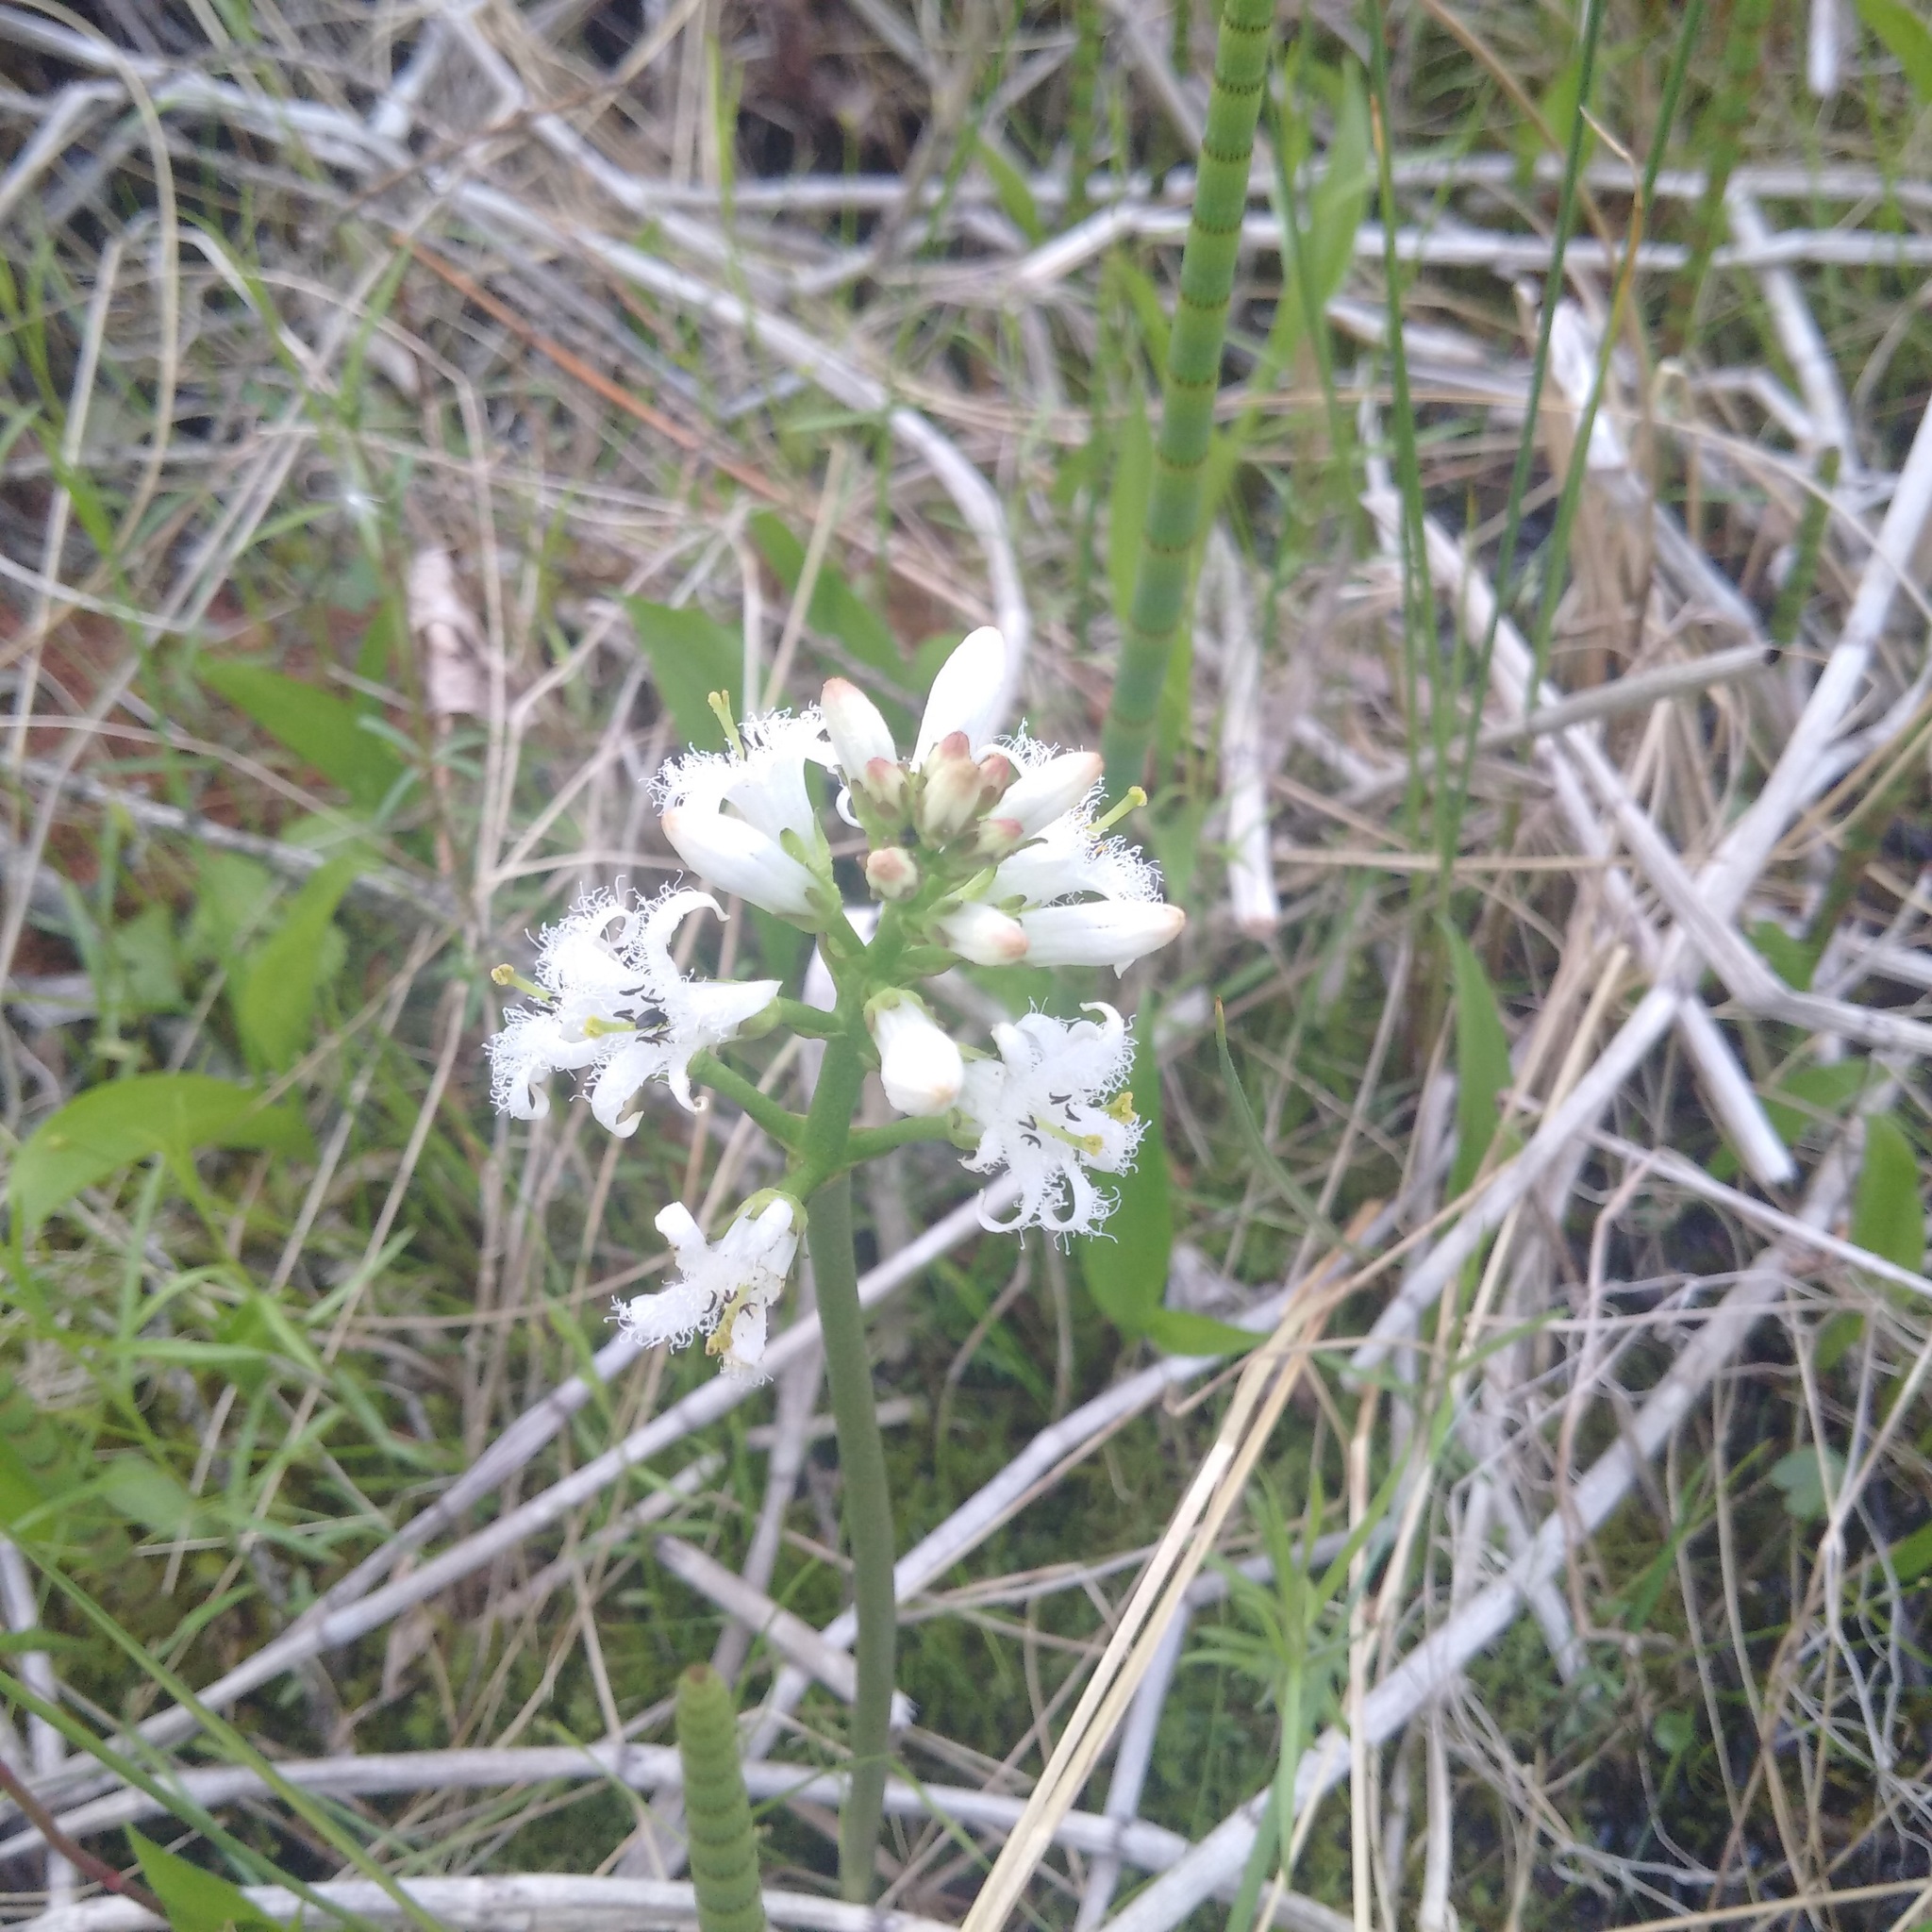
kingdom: Plantae
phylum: Tracheophyta
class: Magnoliopsida
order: Asterales
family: Menyanthaceae
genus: Menyanthes
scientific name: Menyanthes trifoliata
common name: Bogbean
